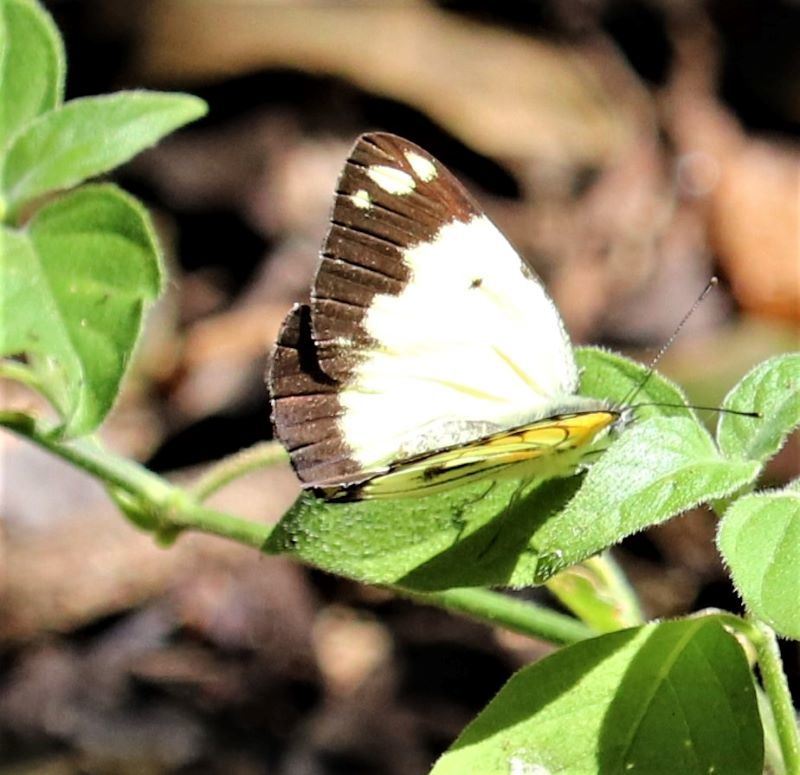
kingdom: Animalia
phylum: Arthropoda
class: Insecta
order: Lepidoptera
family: Pieridae
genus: Belenois
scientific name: Belenois creona
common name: African caper white
